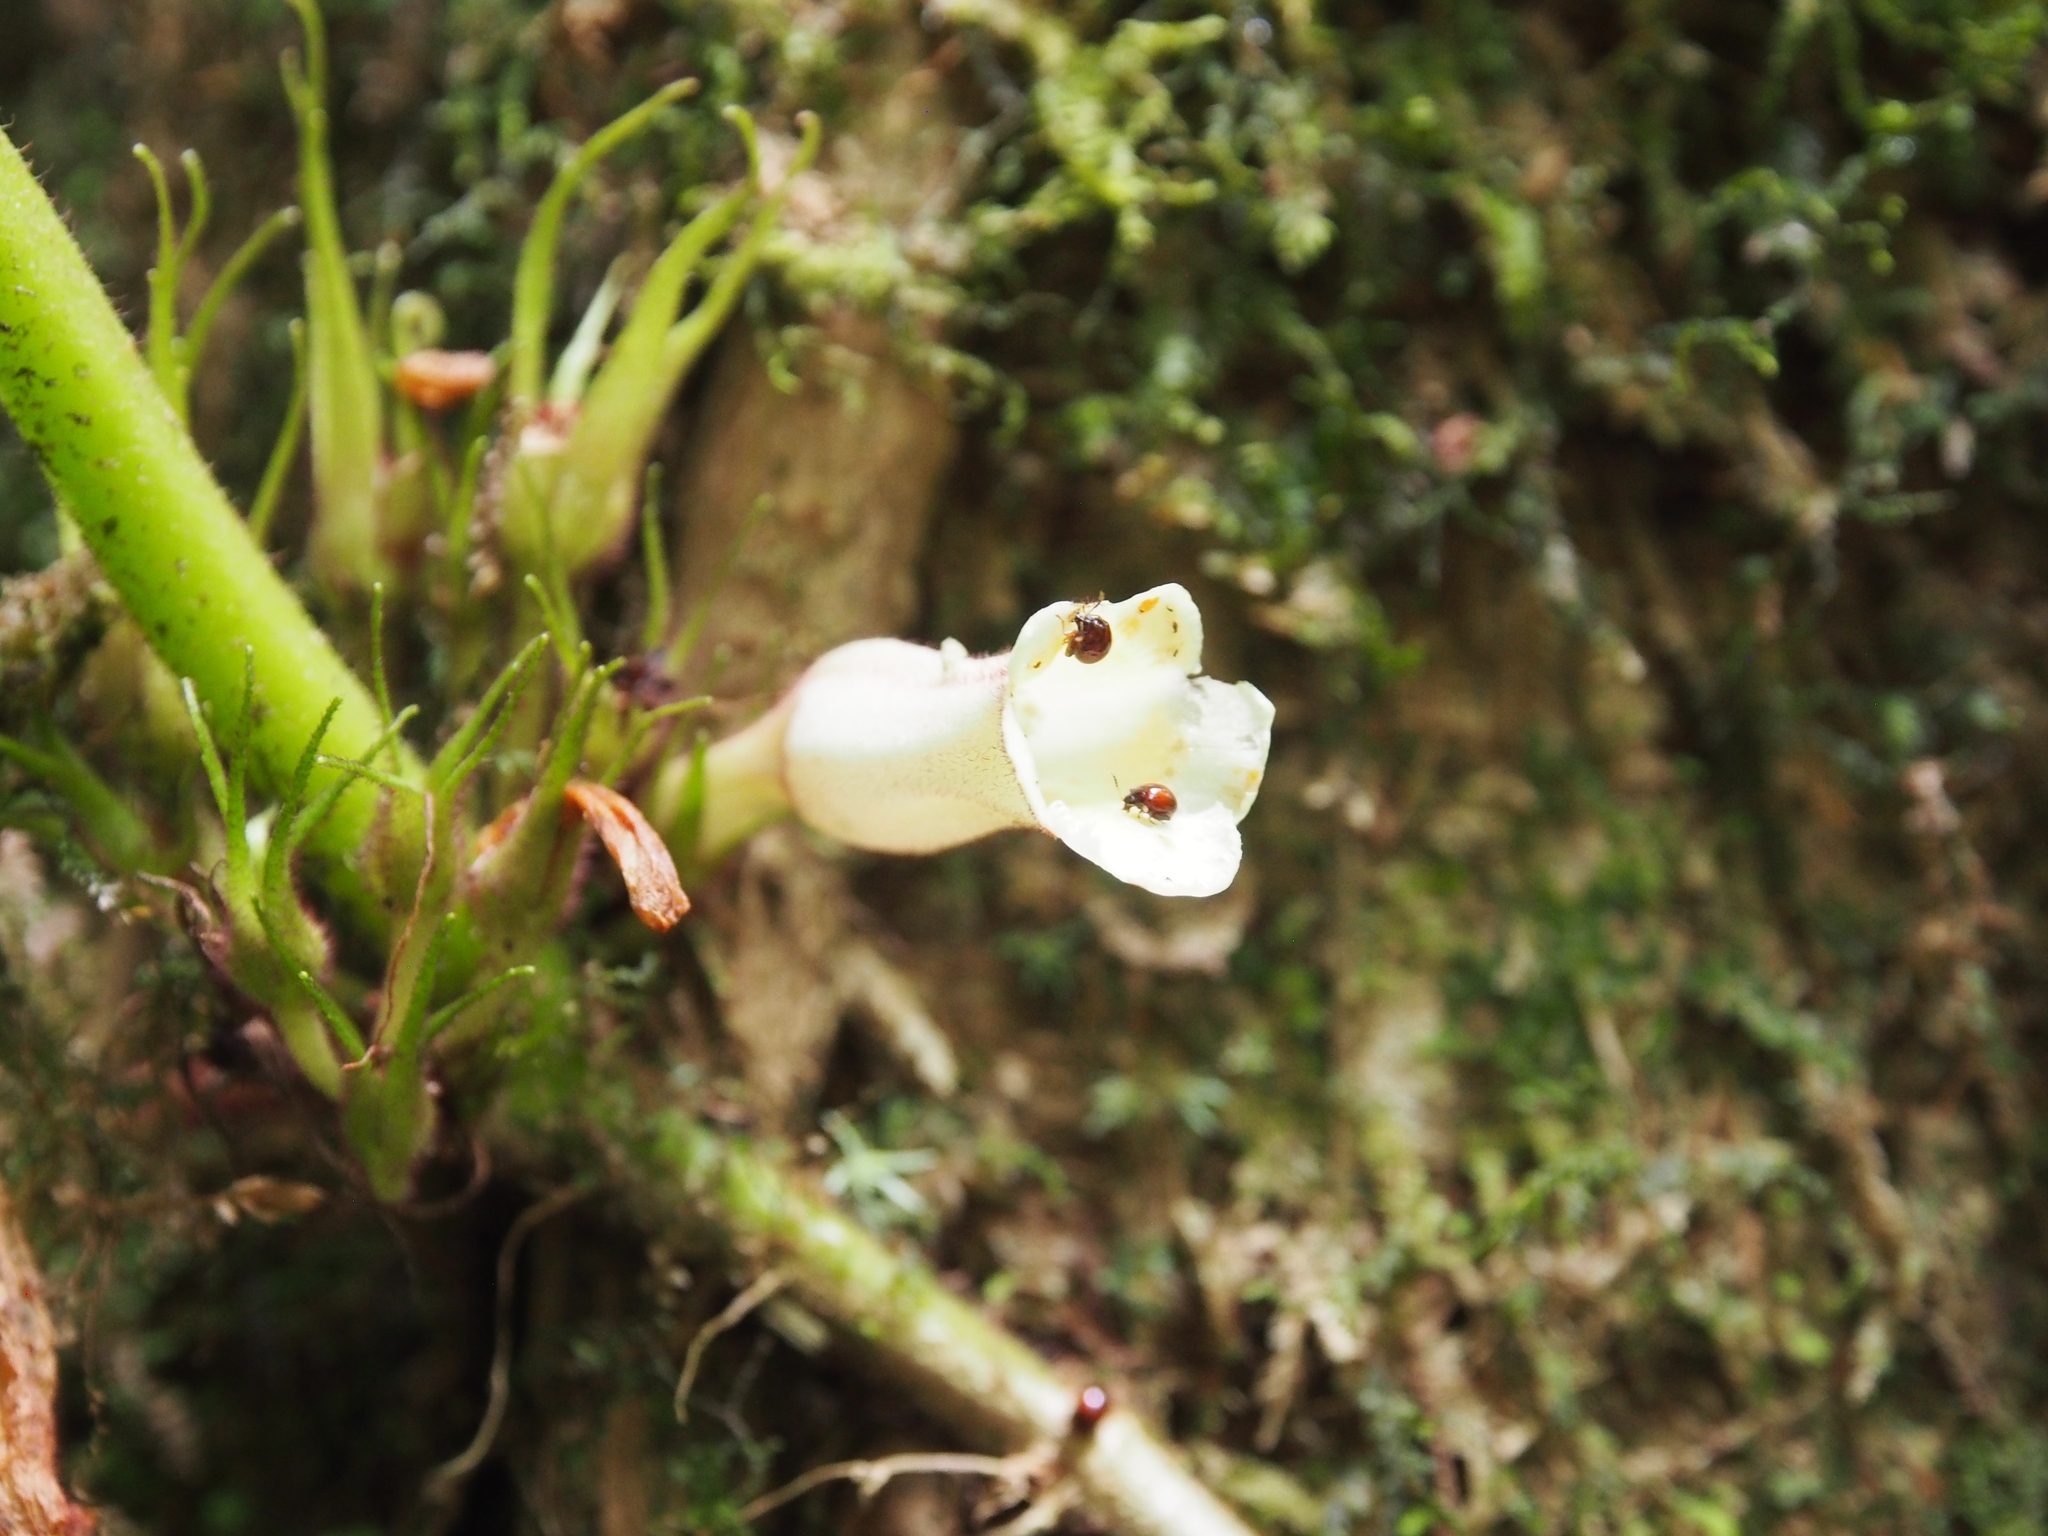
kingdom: Plantae
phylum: Tracheophyta
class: Magnoliopsida
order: Lamiales
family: Gesneriaceae
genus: Paradrymonia
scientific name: Paradrymonia ciliosa
